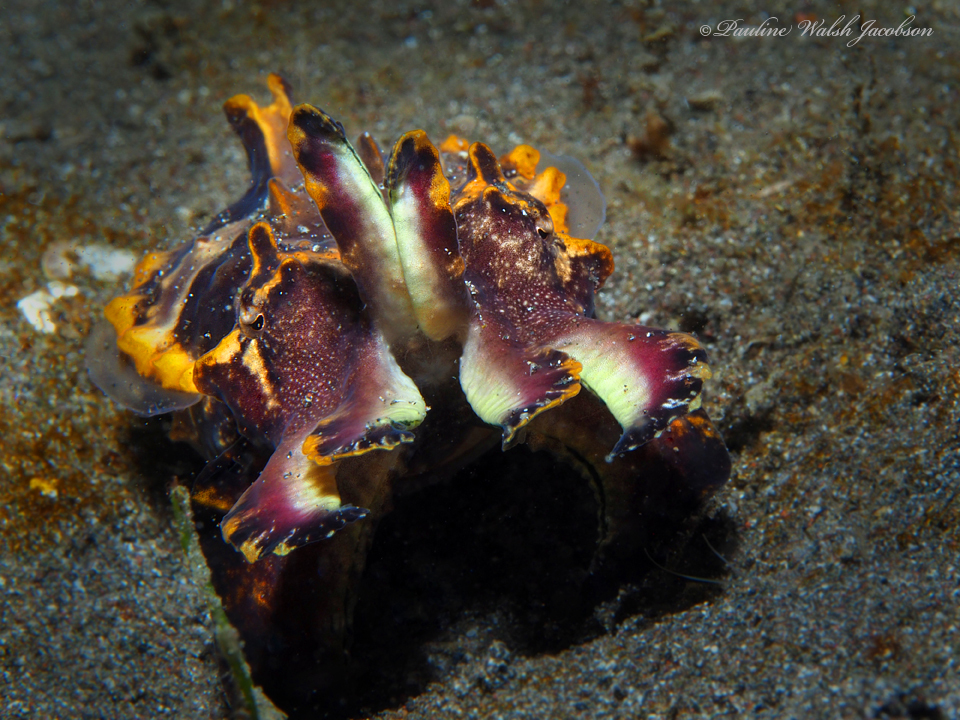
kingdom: Animalia
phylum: Mollusca
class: Cephalopoda
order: Sepiida
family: Sepiidae
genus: Ascarosepion
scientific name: Ascarosepion pfefferi
